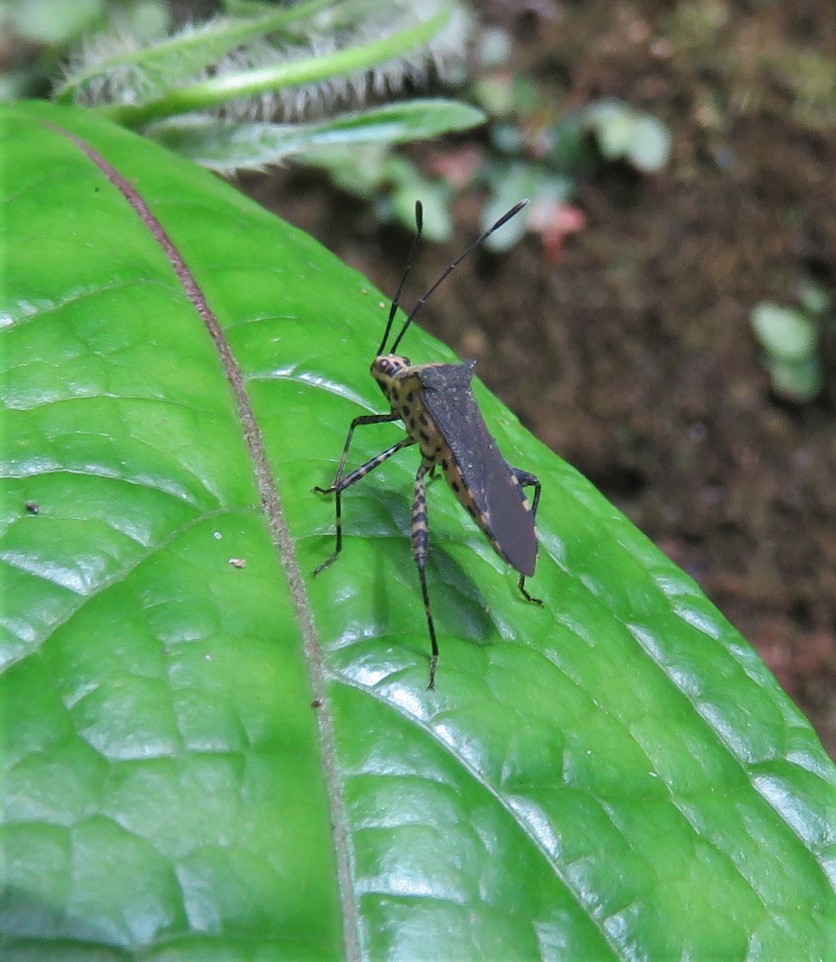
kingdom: Animalia
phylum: Arthropoda
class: Insecta
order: Hemiptera
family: Coreidae
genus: Zicca
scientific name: Zicca commaculata
